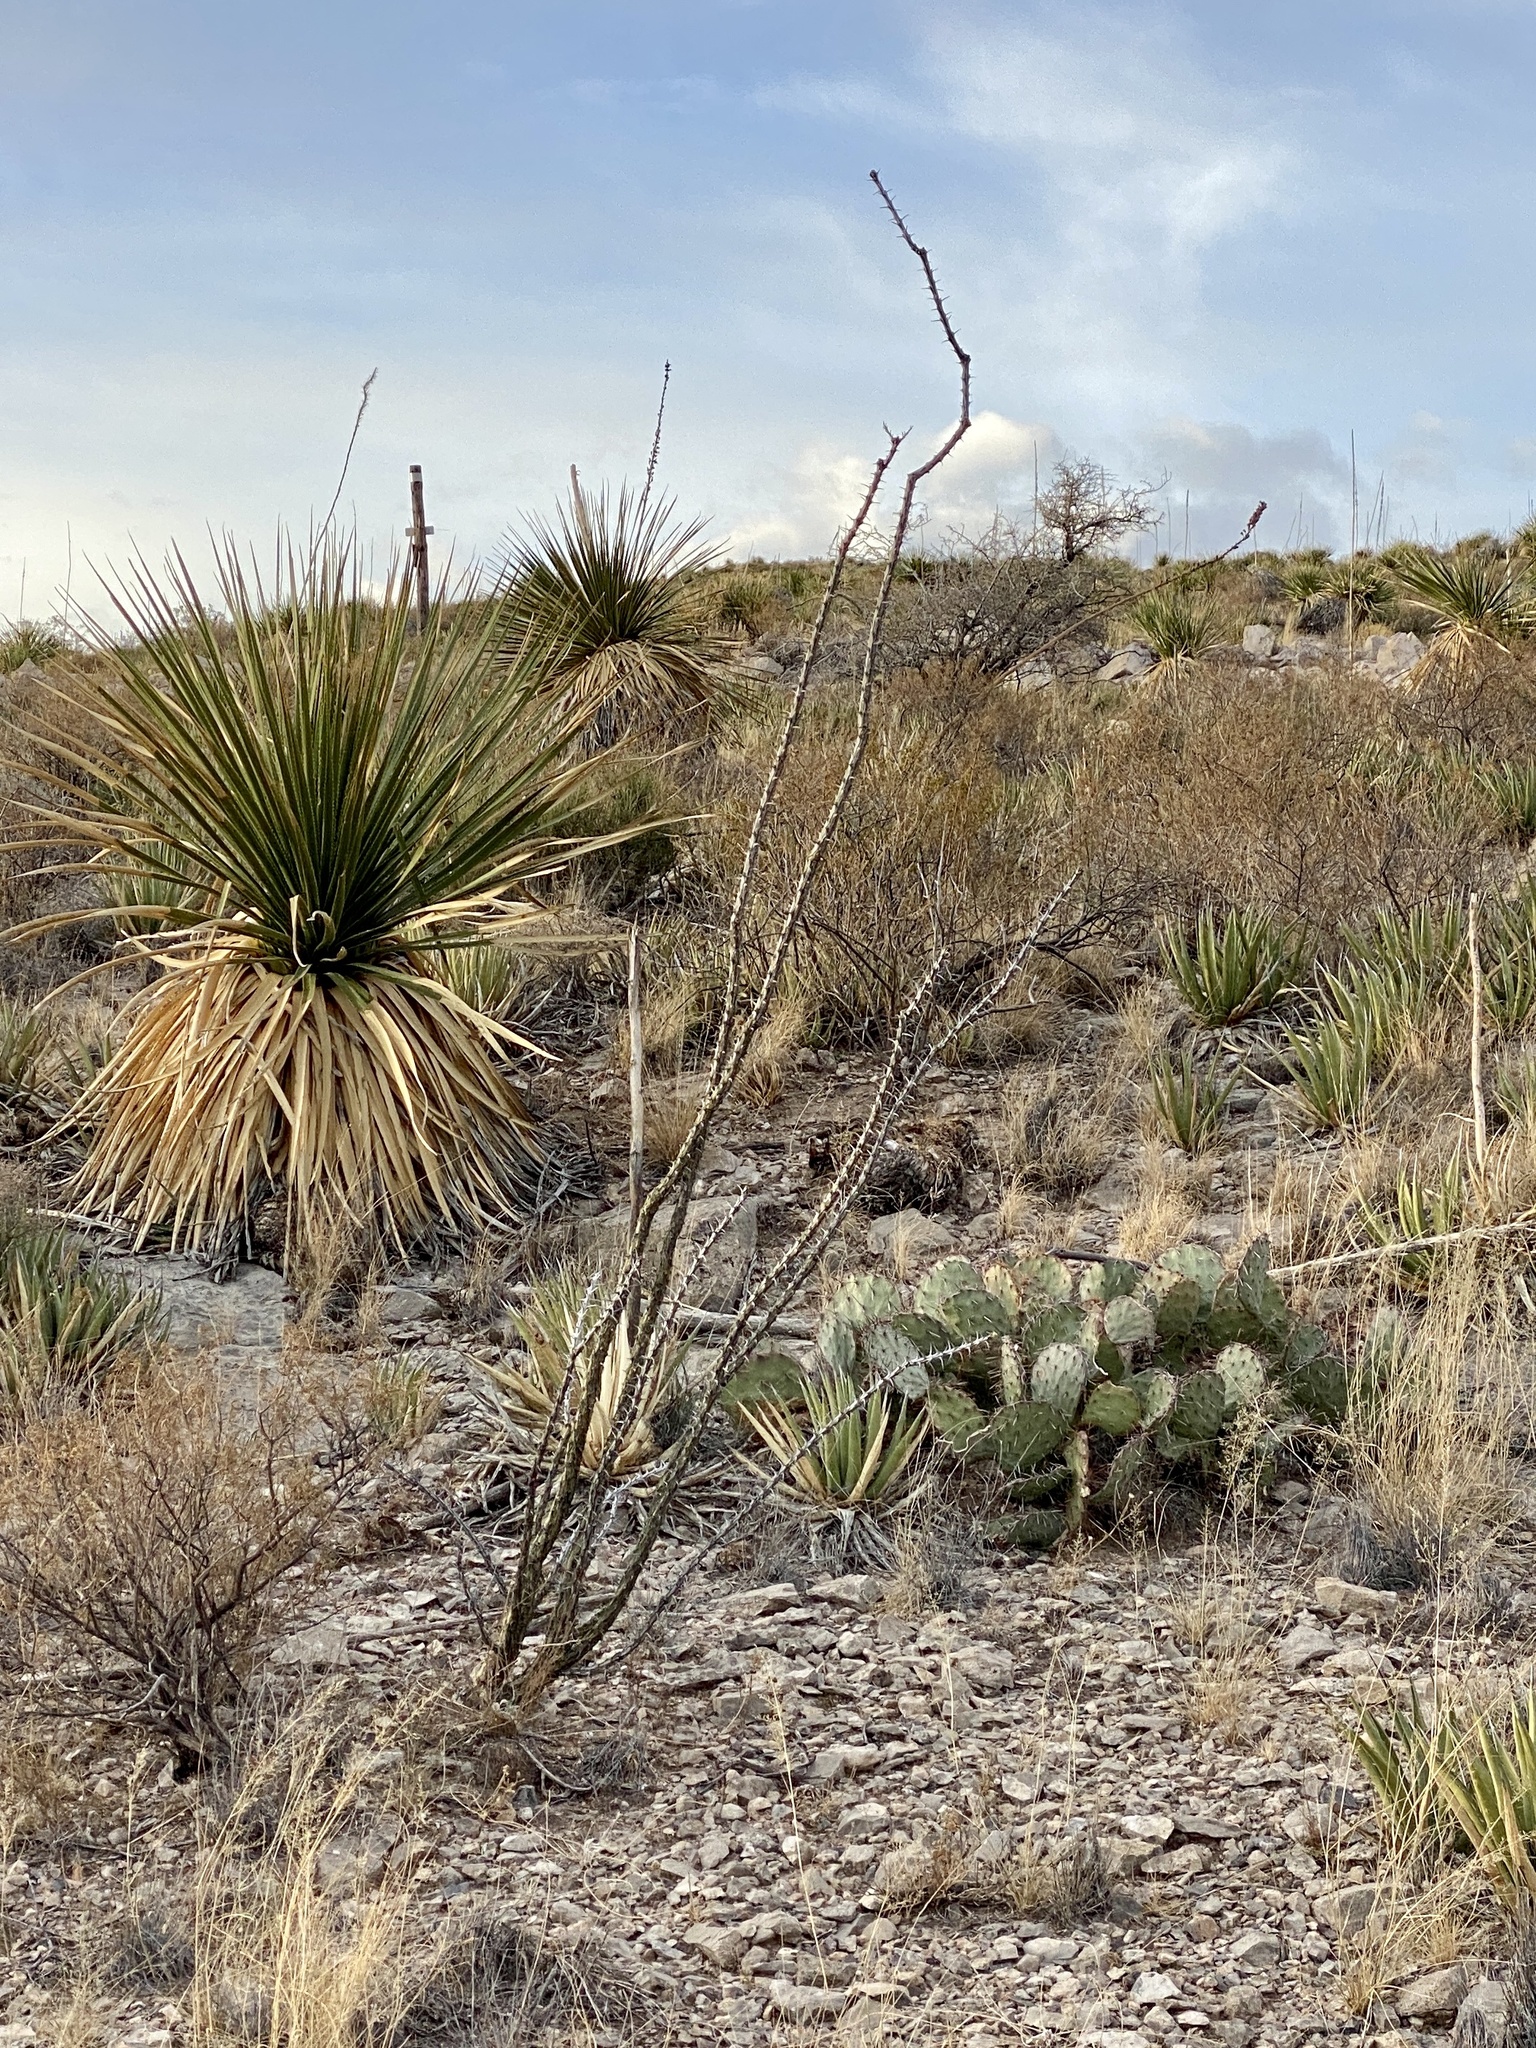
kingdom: Plantae
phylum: Tracheophyta
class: Magnoliopsida
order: Ericales
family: Fouquieriaceae
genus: Fouquieria
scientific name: Fouquieria splendens
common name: Vine-cactus
